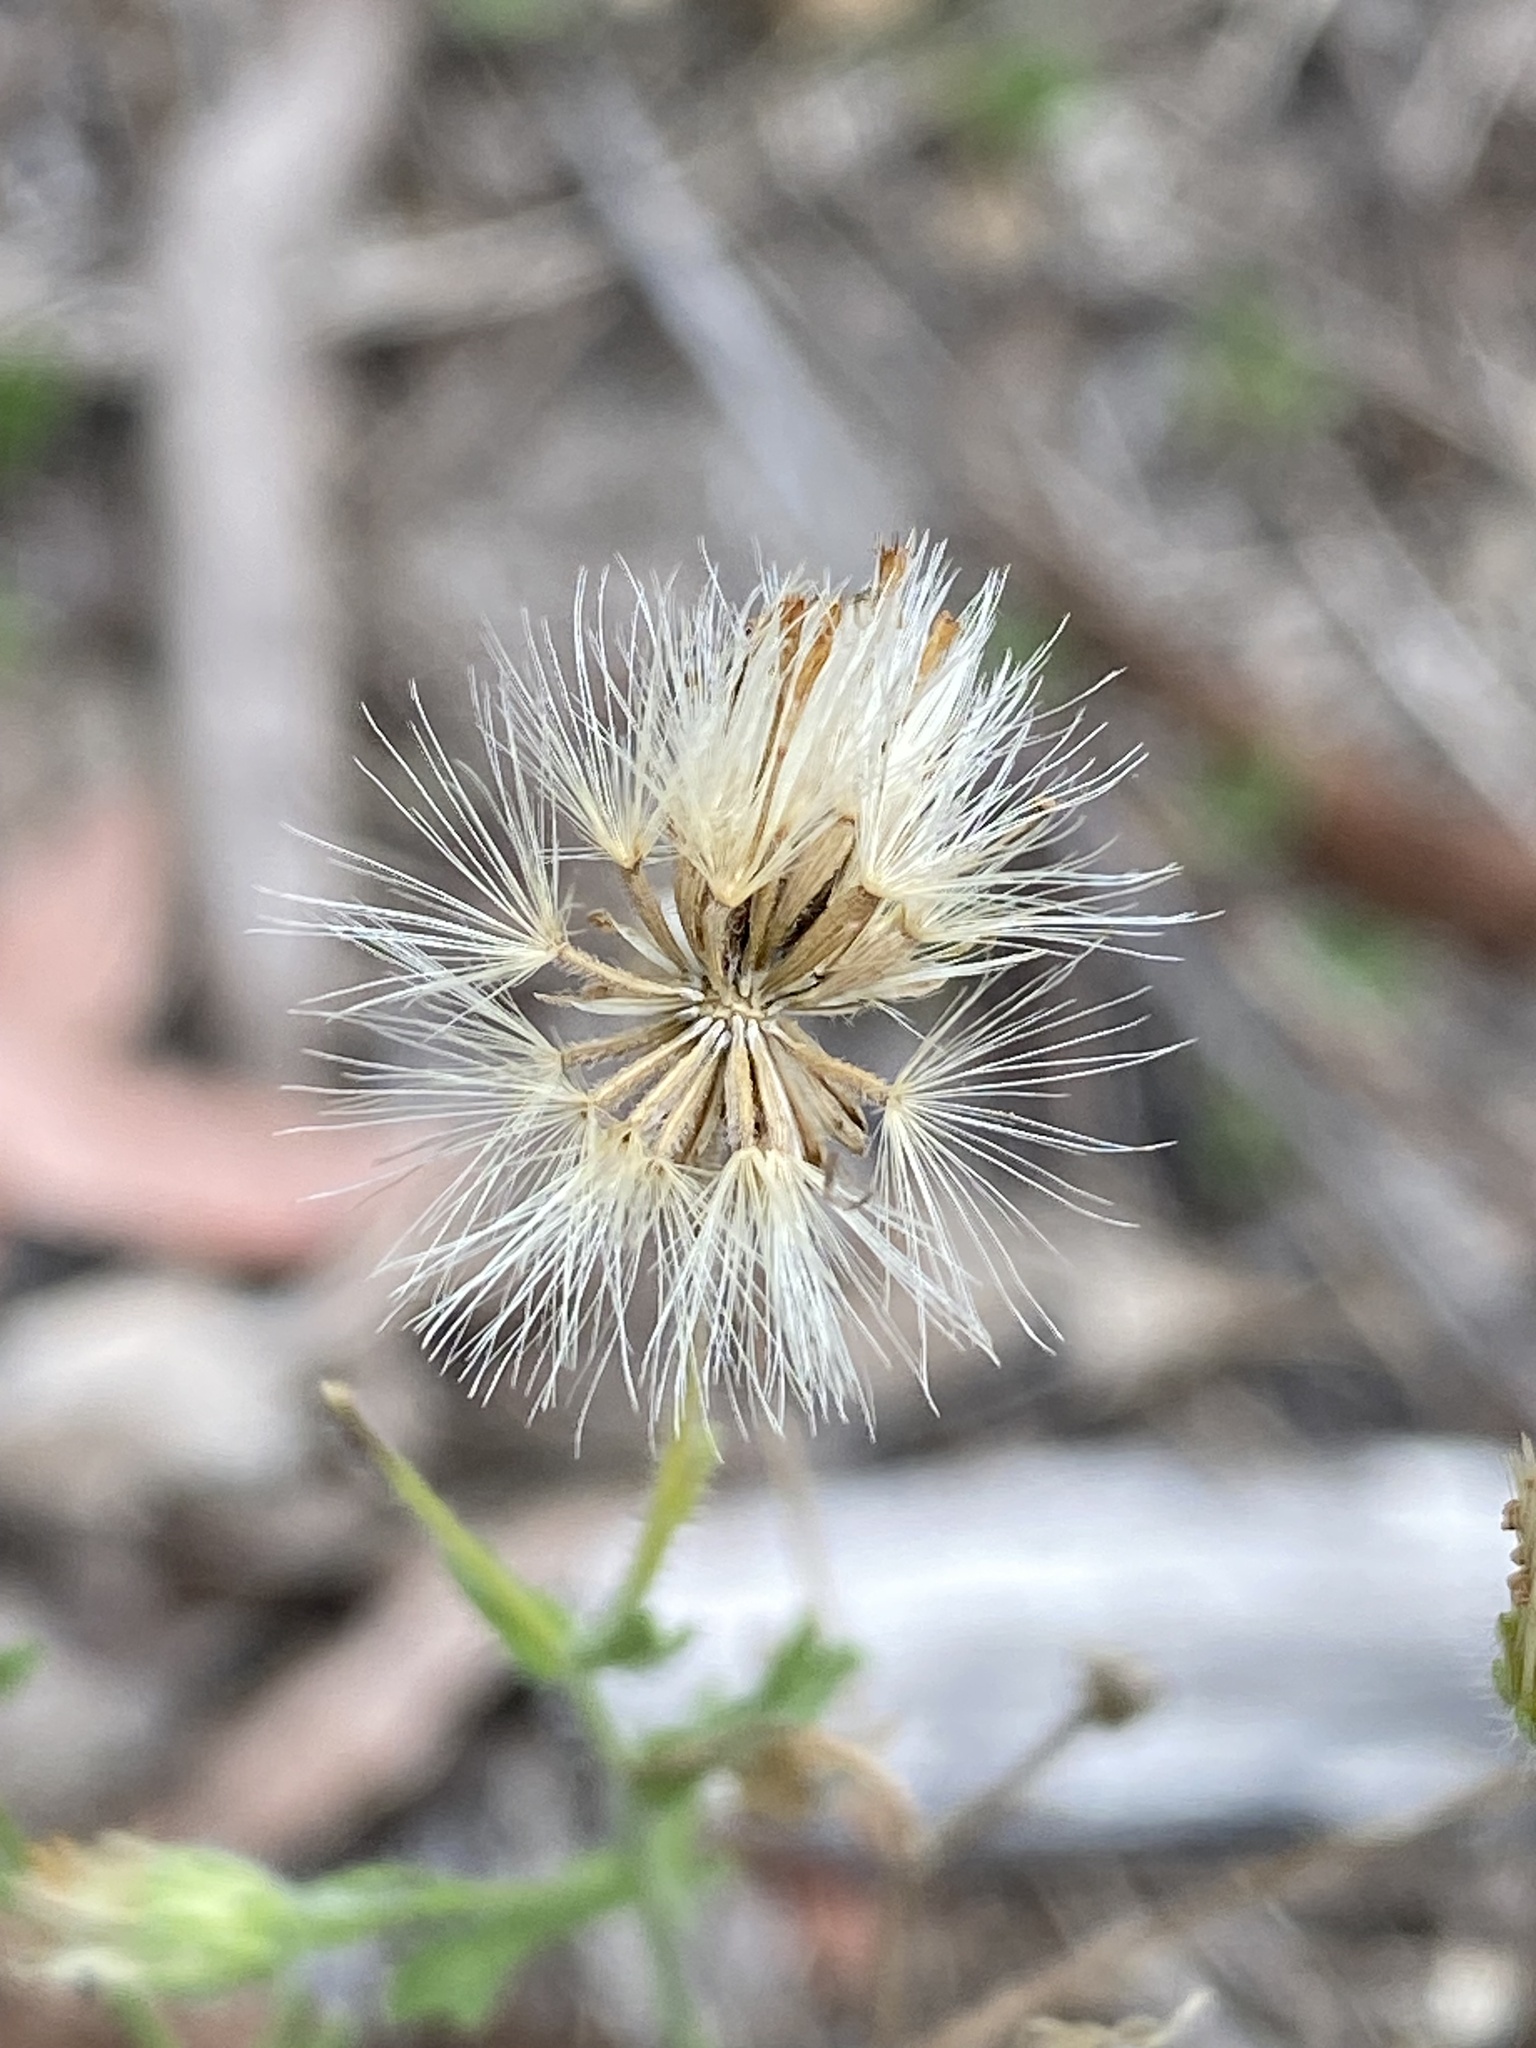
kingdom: Plantae
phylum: Tracheophyta
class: Magnoliopsida
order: Asterales
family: Asteraceae
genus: Vittadinia
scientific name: Vittadinia sulcata
